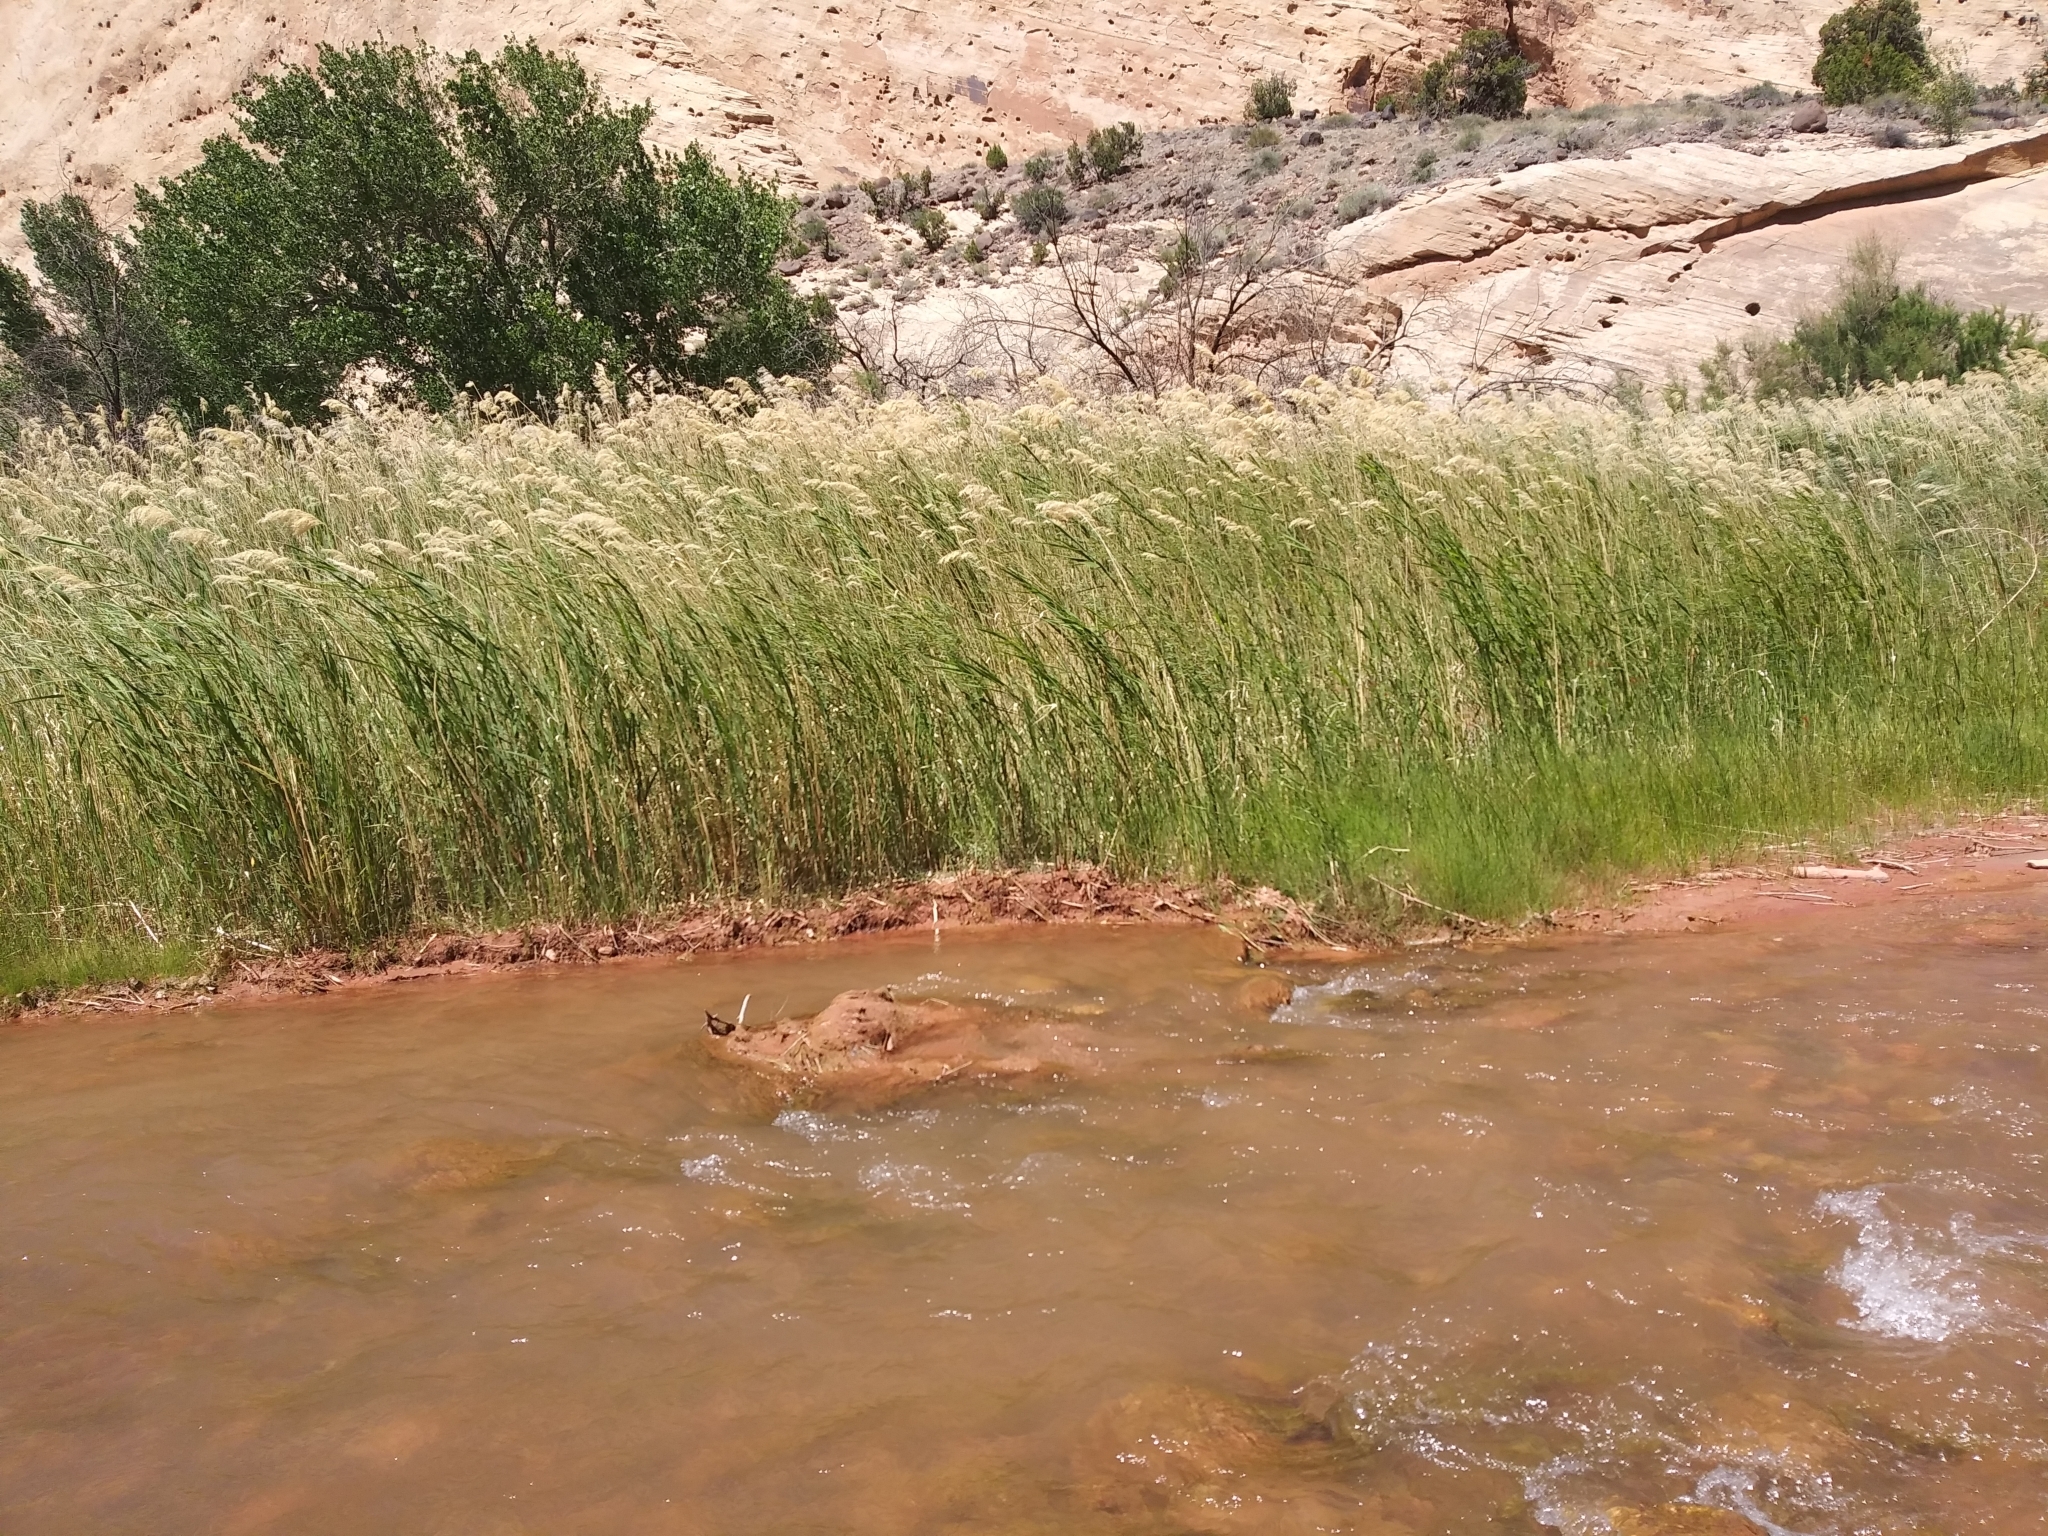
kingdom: Plantae
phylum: Tracheophyta
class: Liliopsida
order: Poales
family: Poaceae
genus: Phragmites
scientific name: Phragmites australis
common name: Common reed
